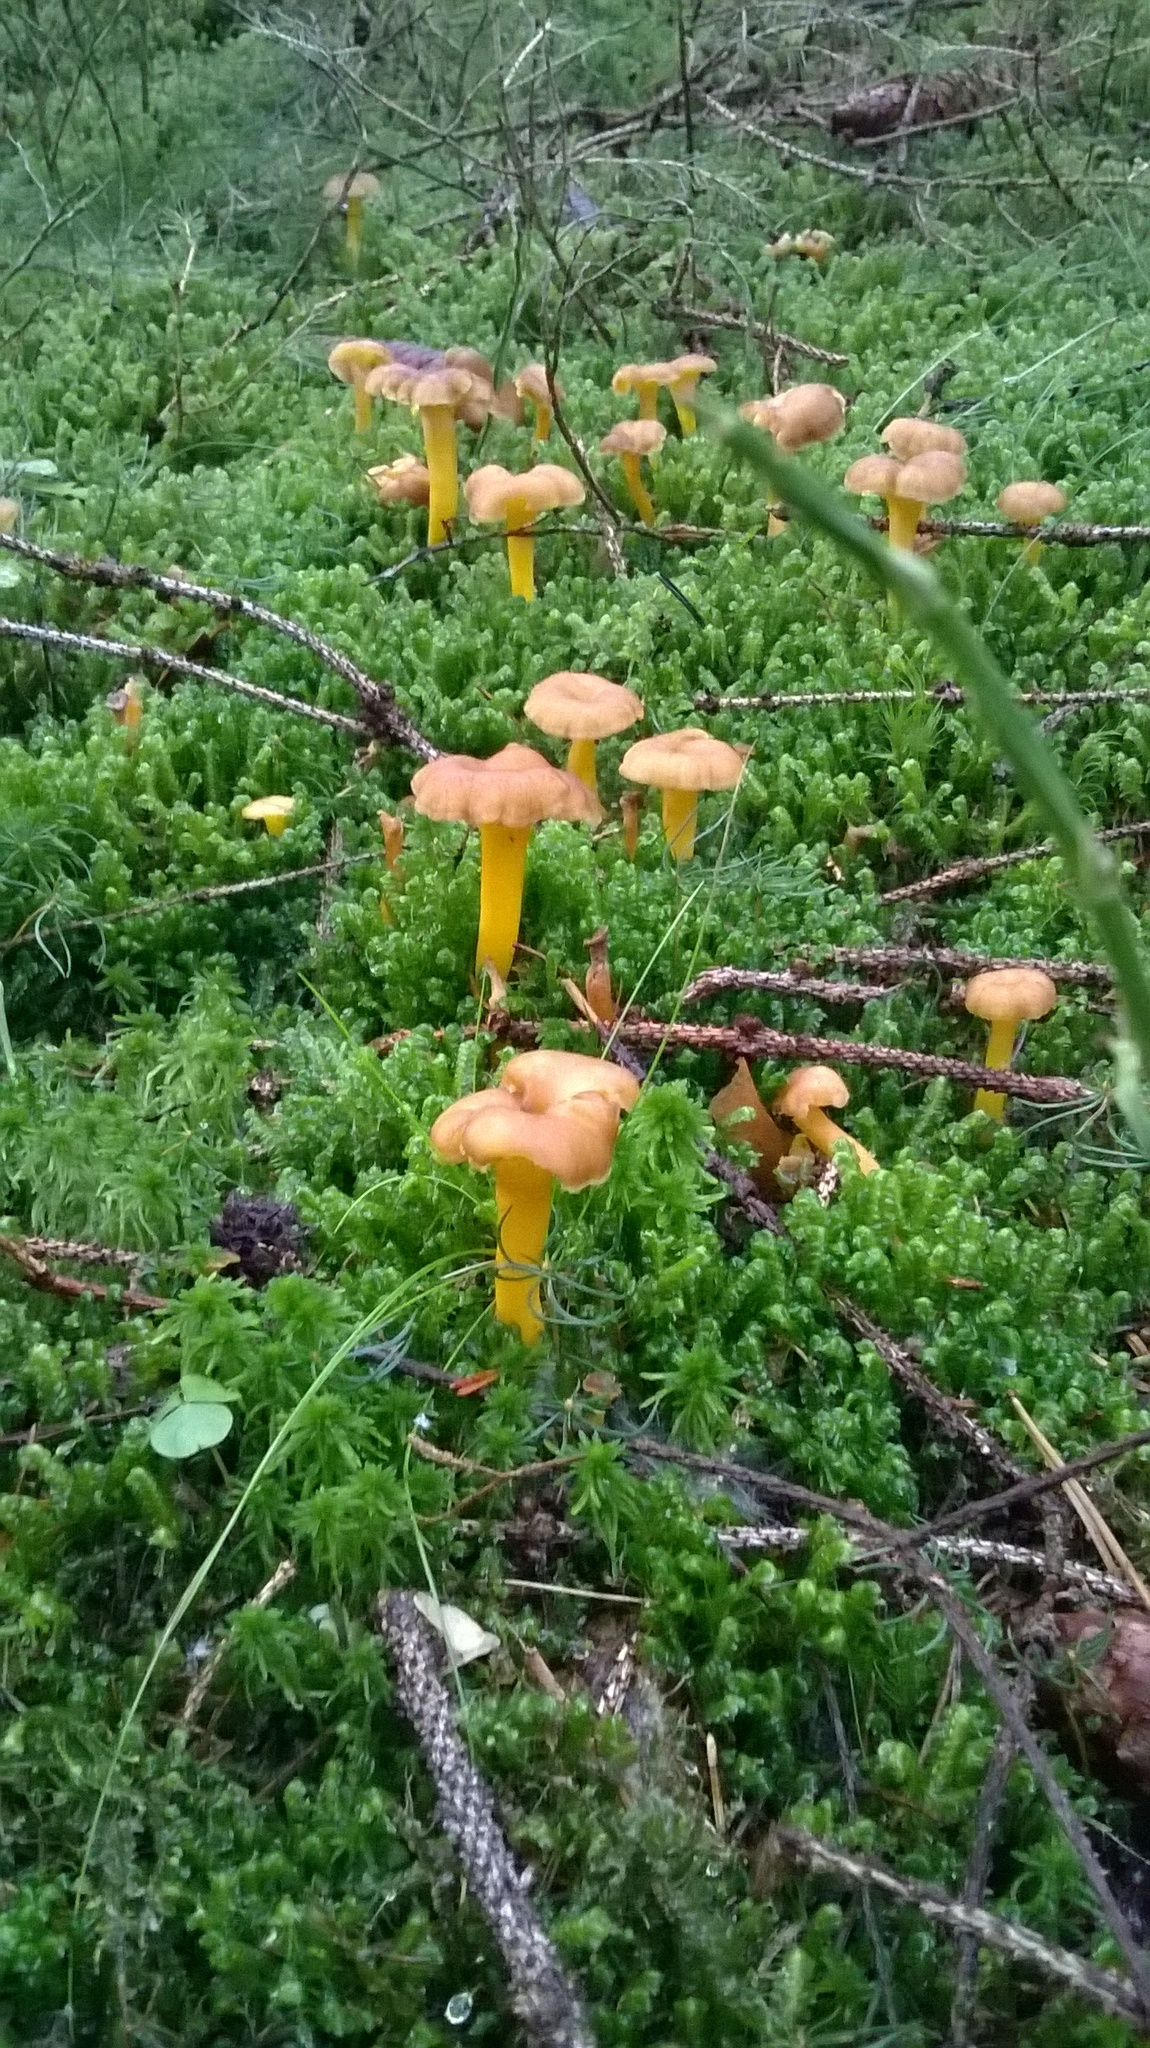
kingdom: Fungi
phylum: Basidiomycota
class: Agaricomycetes
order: Cantharellales
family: Hydnaceae
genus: Craterellus
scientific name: Craterellus tubaeformis
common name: Yellowfoot
